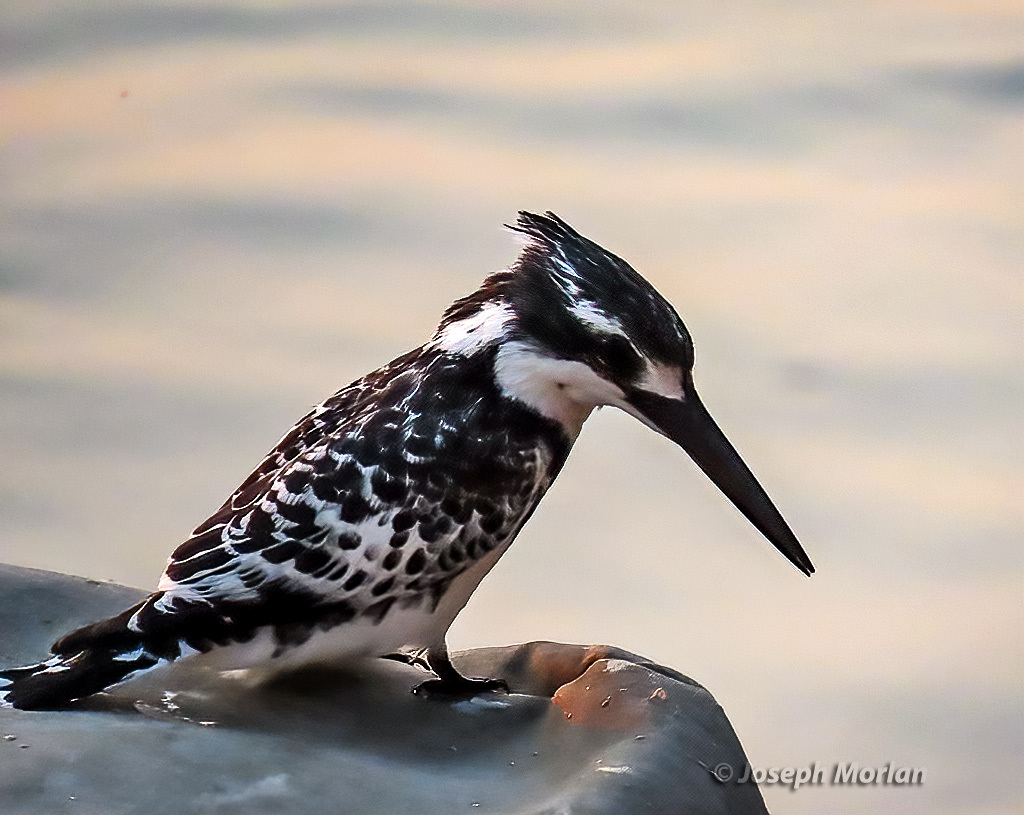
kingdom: Animalia
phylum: Chordata
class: Aves
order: Coraciiformes
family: Alcedinidae
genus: Ceryle
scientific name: Ceryle rudis
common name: Pied kingfisher
